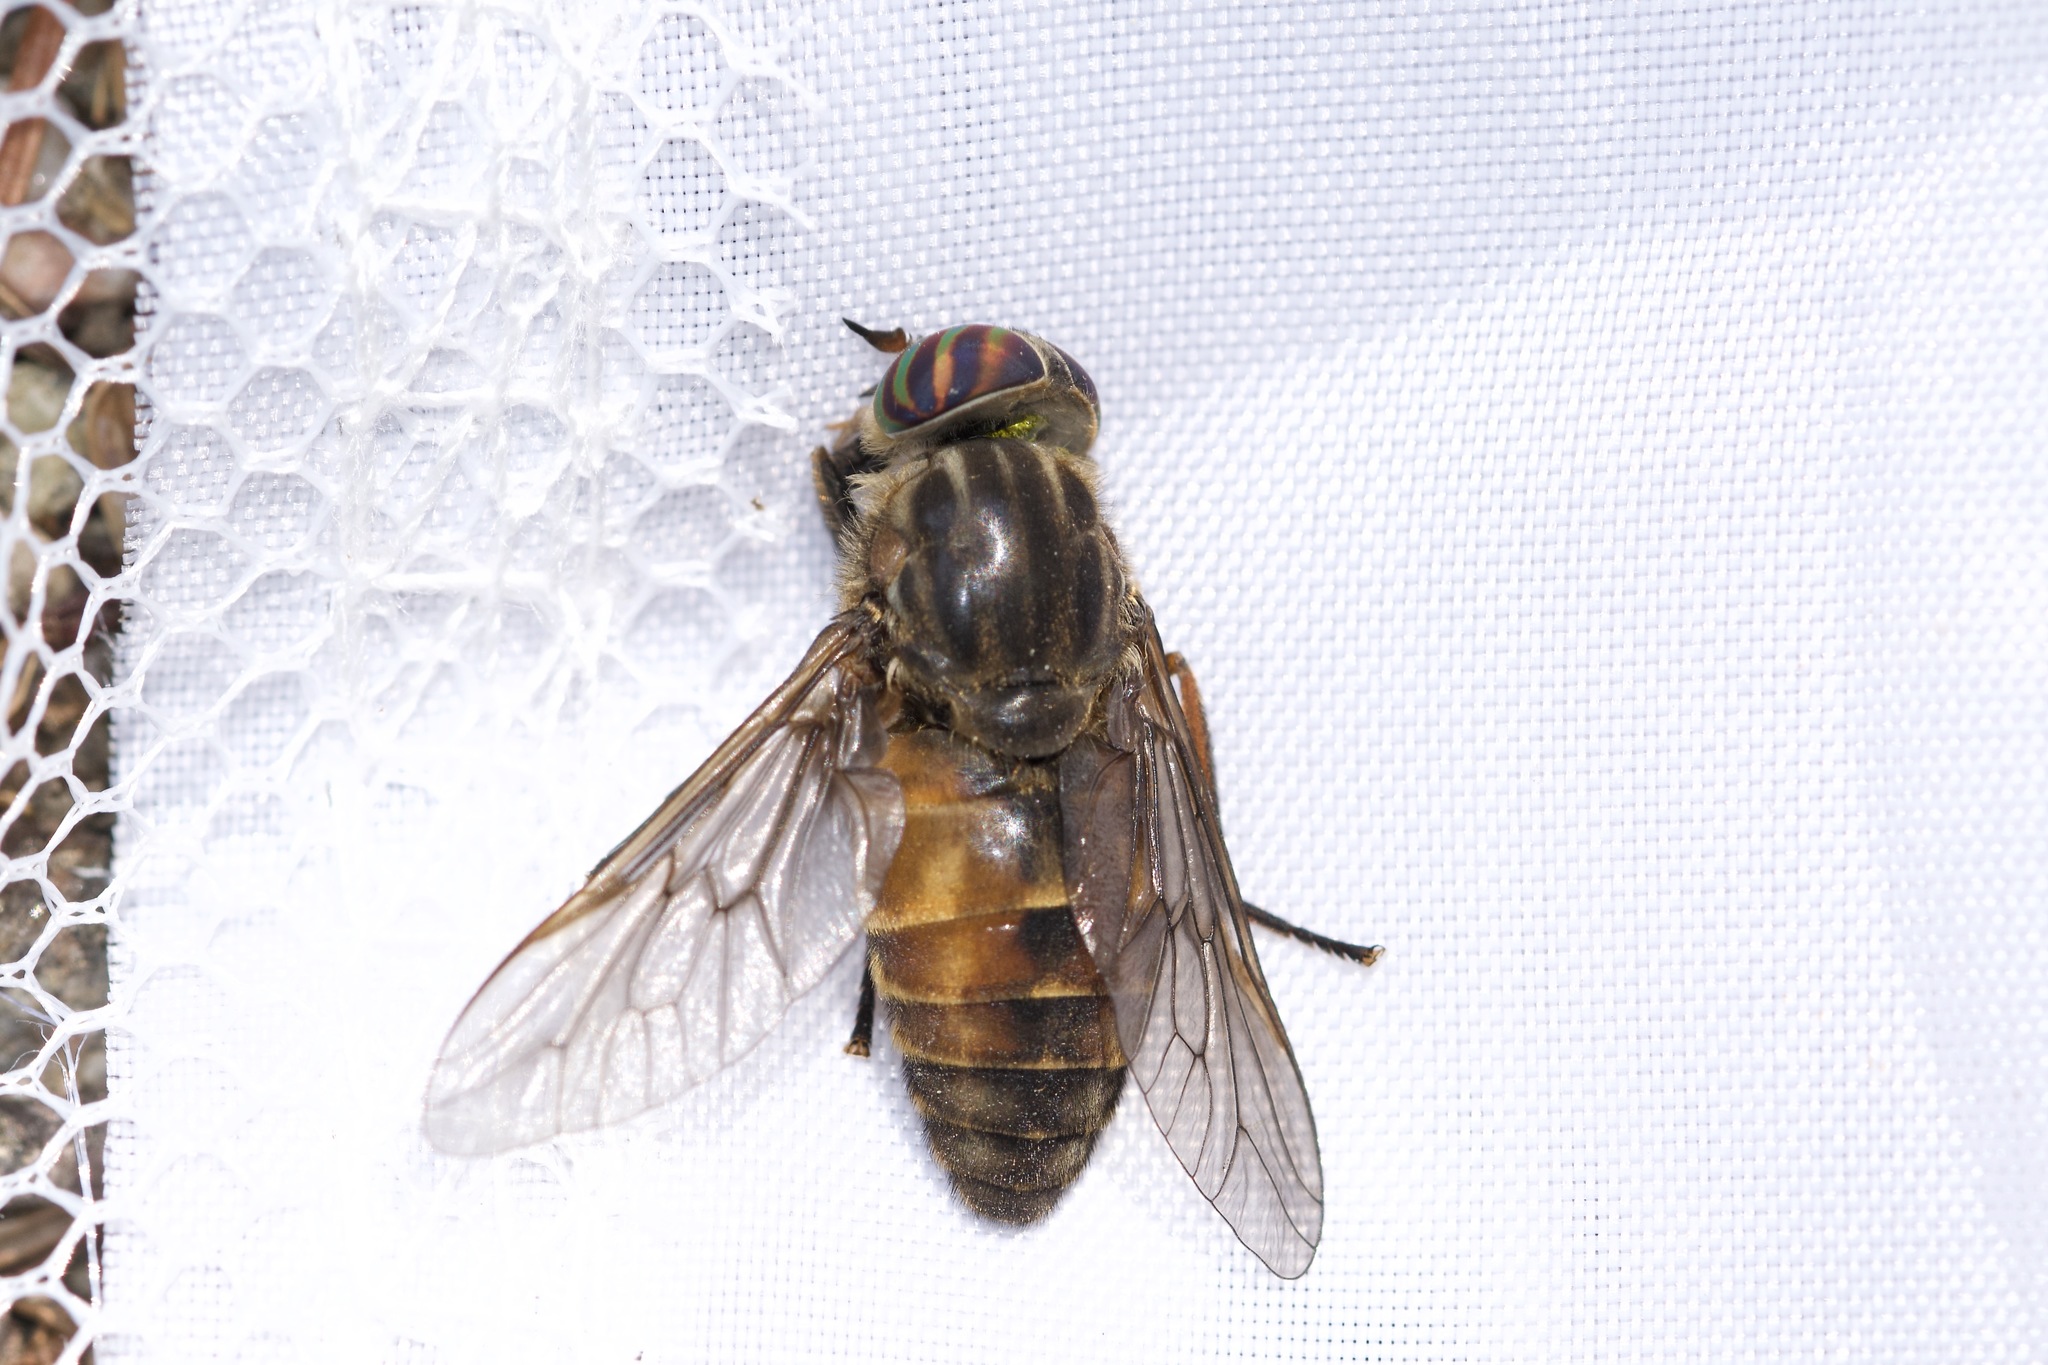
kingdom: Animalia
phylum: Arthropoda
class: Insecta
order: Diptera
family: Tabanidae
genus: Hybomitra
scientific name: Hybomitra trepida
